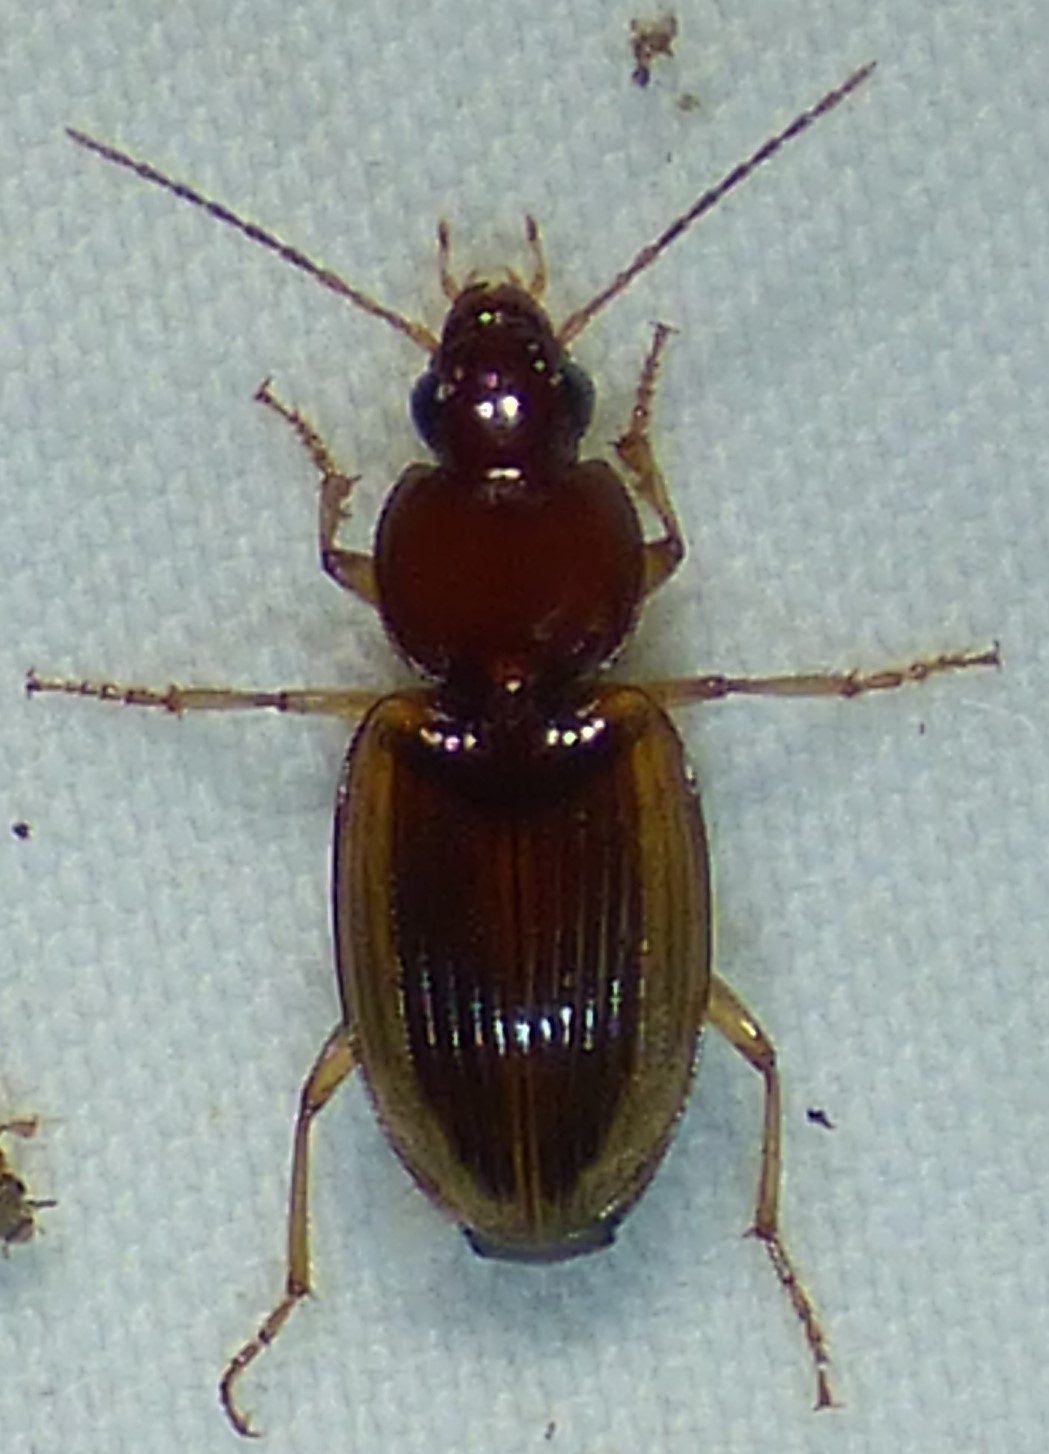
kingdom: Animalia
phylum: Arthropoda
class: Insecta
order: Coleoptera
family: Carabidae
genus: Agonum
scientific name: Agonum pallipes
